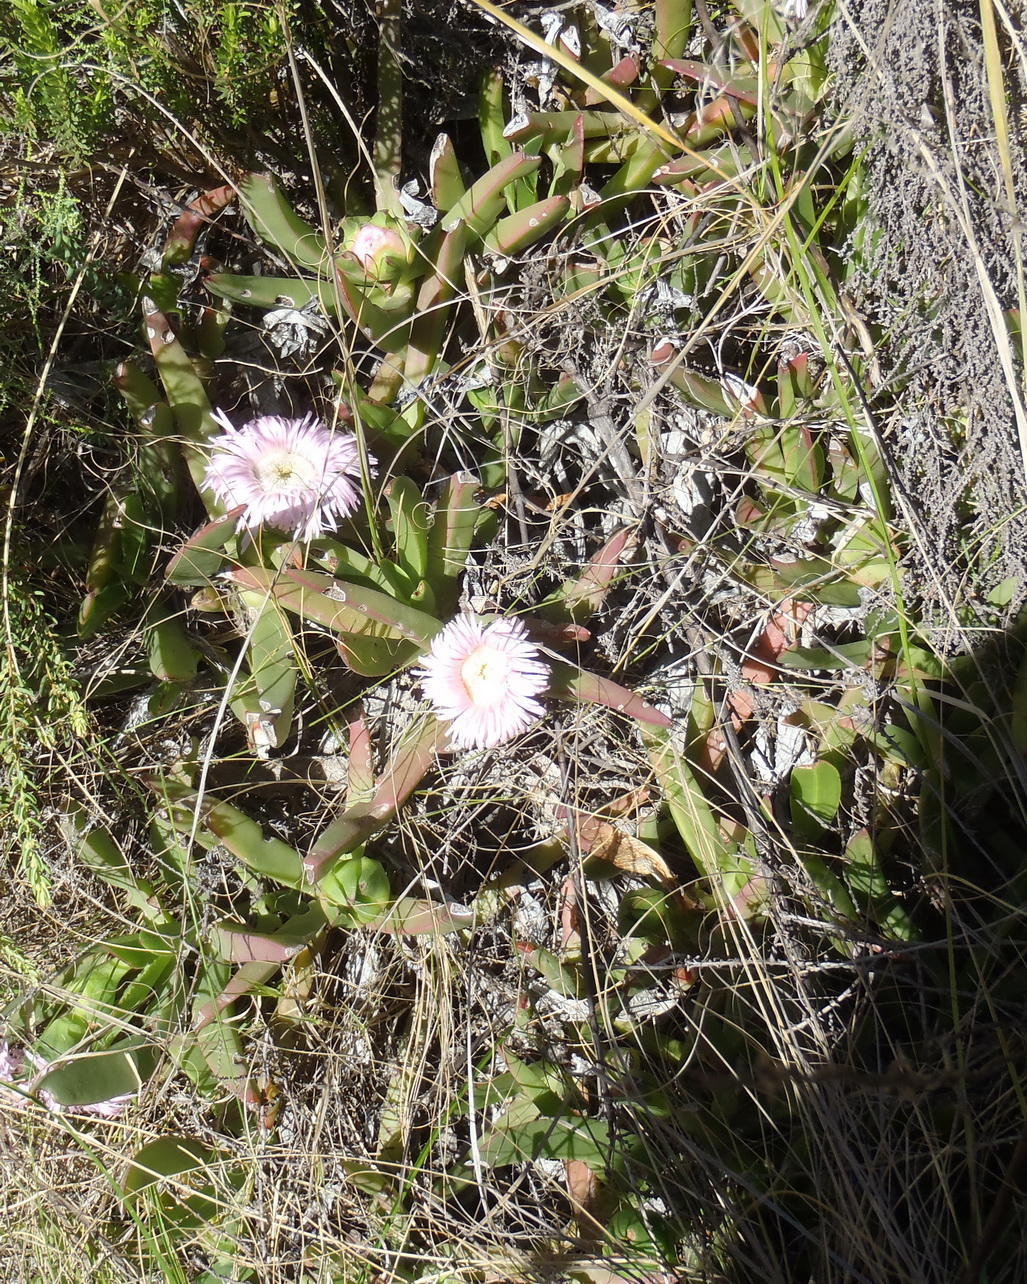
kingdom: Plantae
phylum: Tracheophyta
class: Magnoliopsida
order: Caryophyllales
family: Aizoaceae
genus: Carpobrotus
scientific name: Carpobrotus mellei
